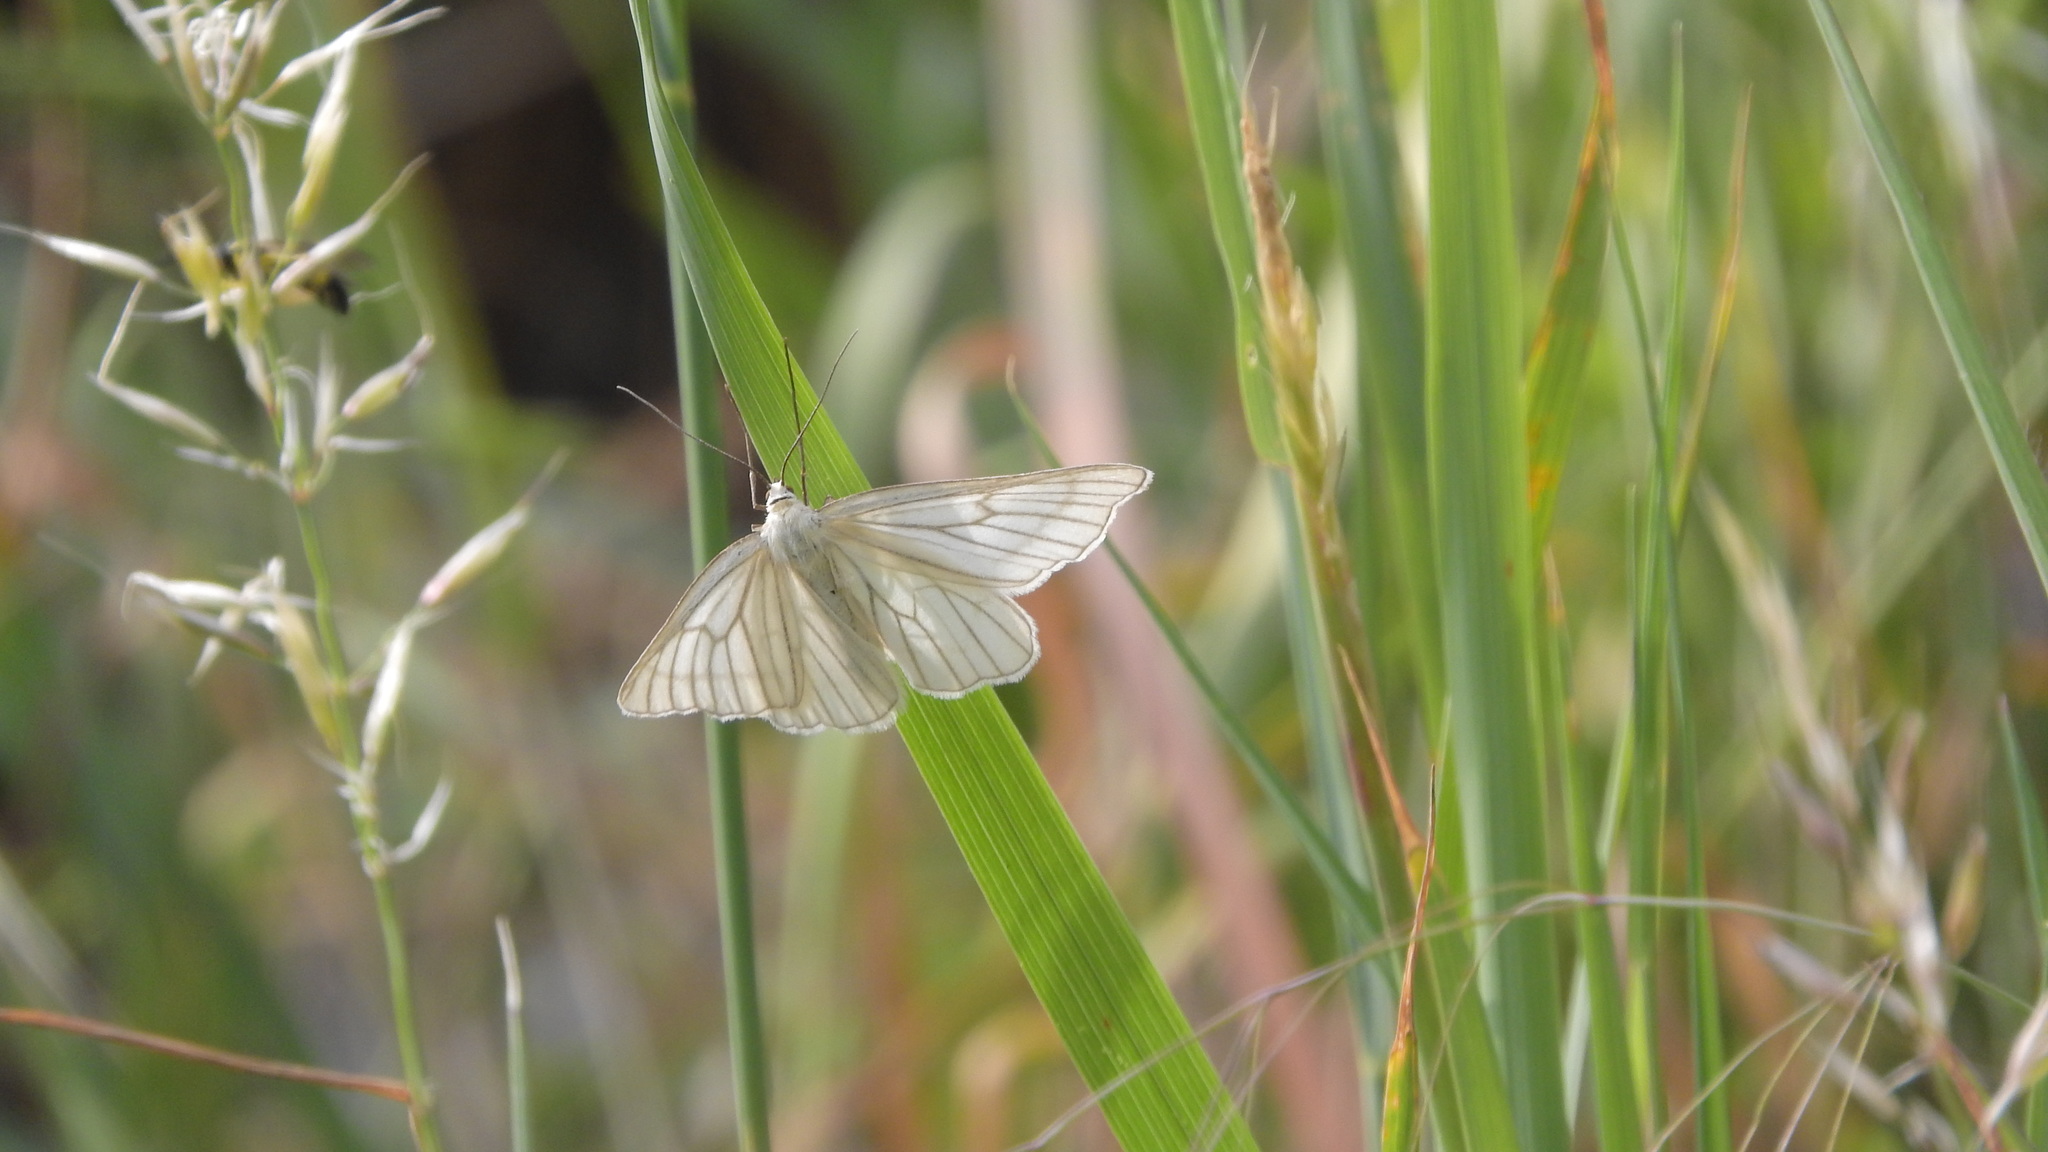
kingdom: Animalia
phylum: Arthropoda
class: Insecta
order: Lepidoptera
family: Geometridae
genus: Siona
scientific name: Siona lineata
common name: Black-veined moth
